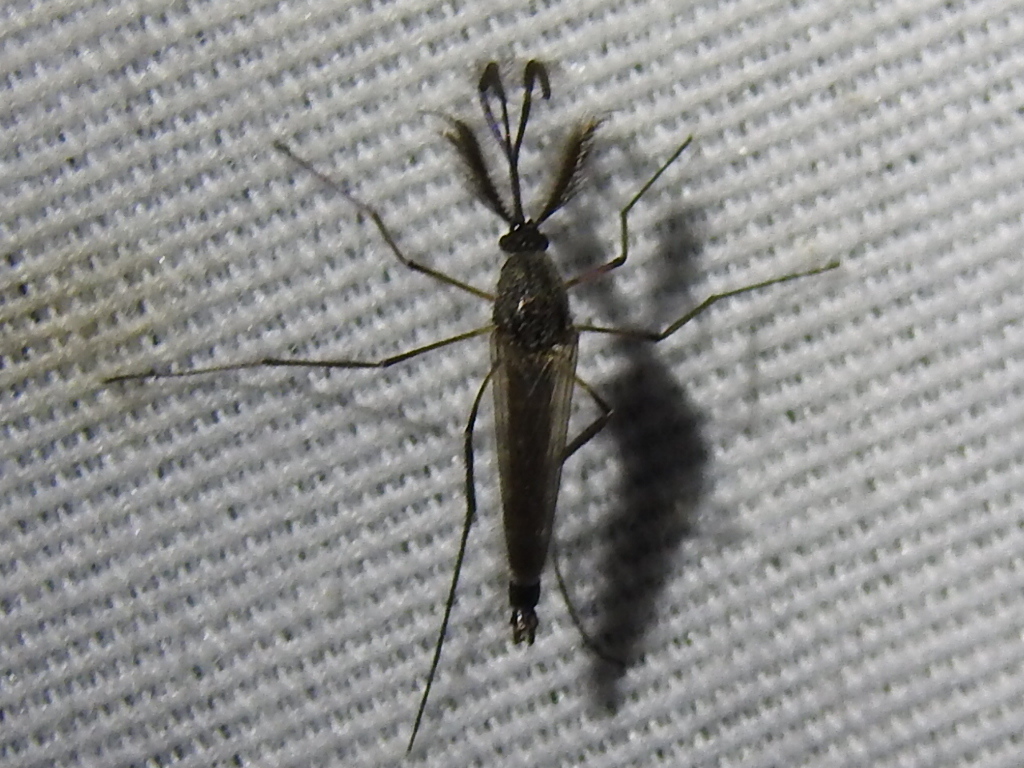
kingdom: Animalia
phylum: Arthropoda
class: Insecta
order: Diptera
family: Culicidae
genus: Psorophora
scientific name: Psorophora cyanescens
